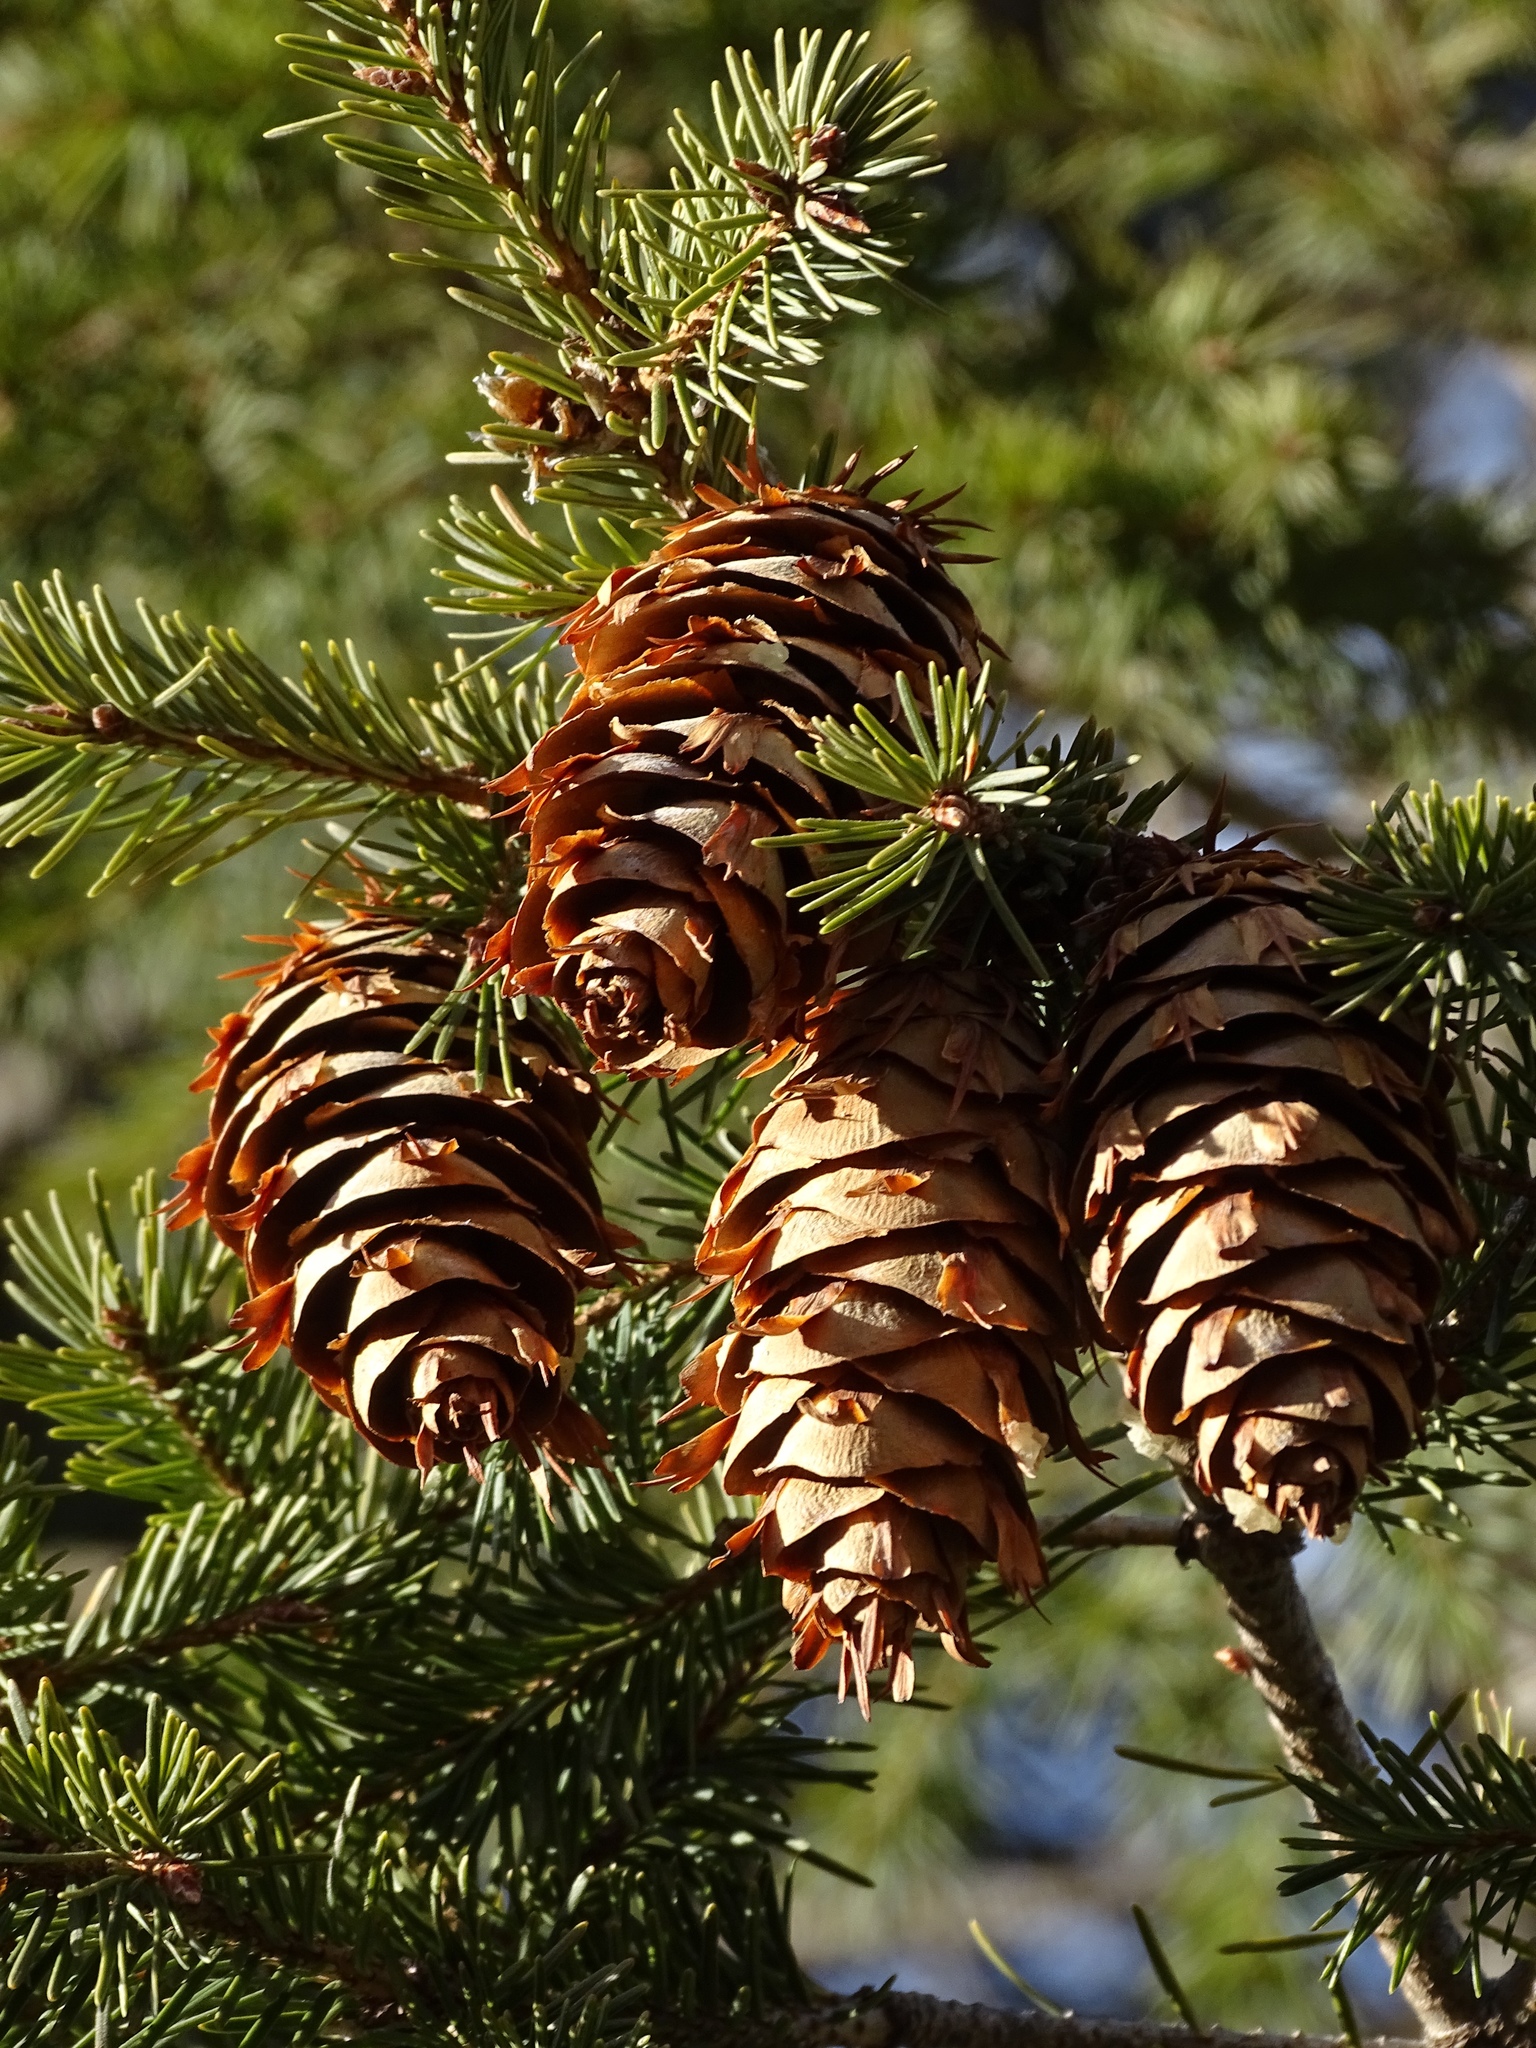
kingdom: Plantae
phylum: Tracheophyta
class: Pinopsida
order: Pinales
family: Pinaceae
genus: Pseudotsuga
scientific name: Pseudotsuga menziesii
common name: Douglas fir
